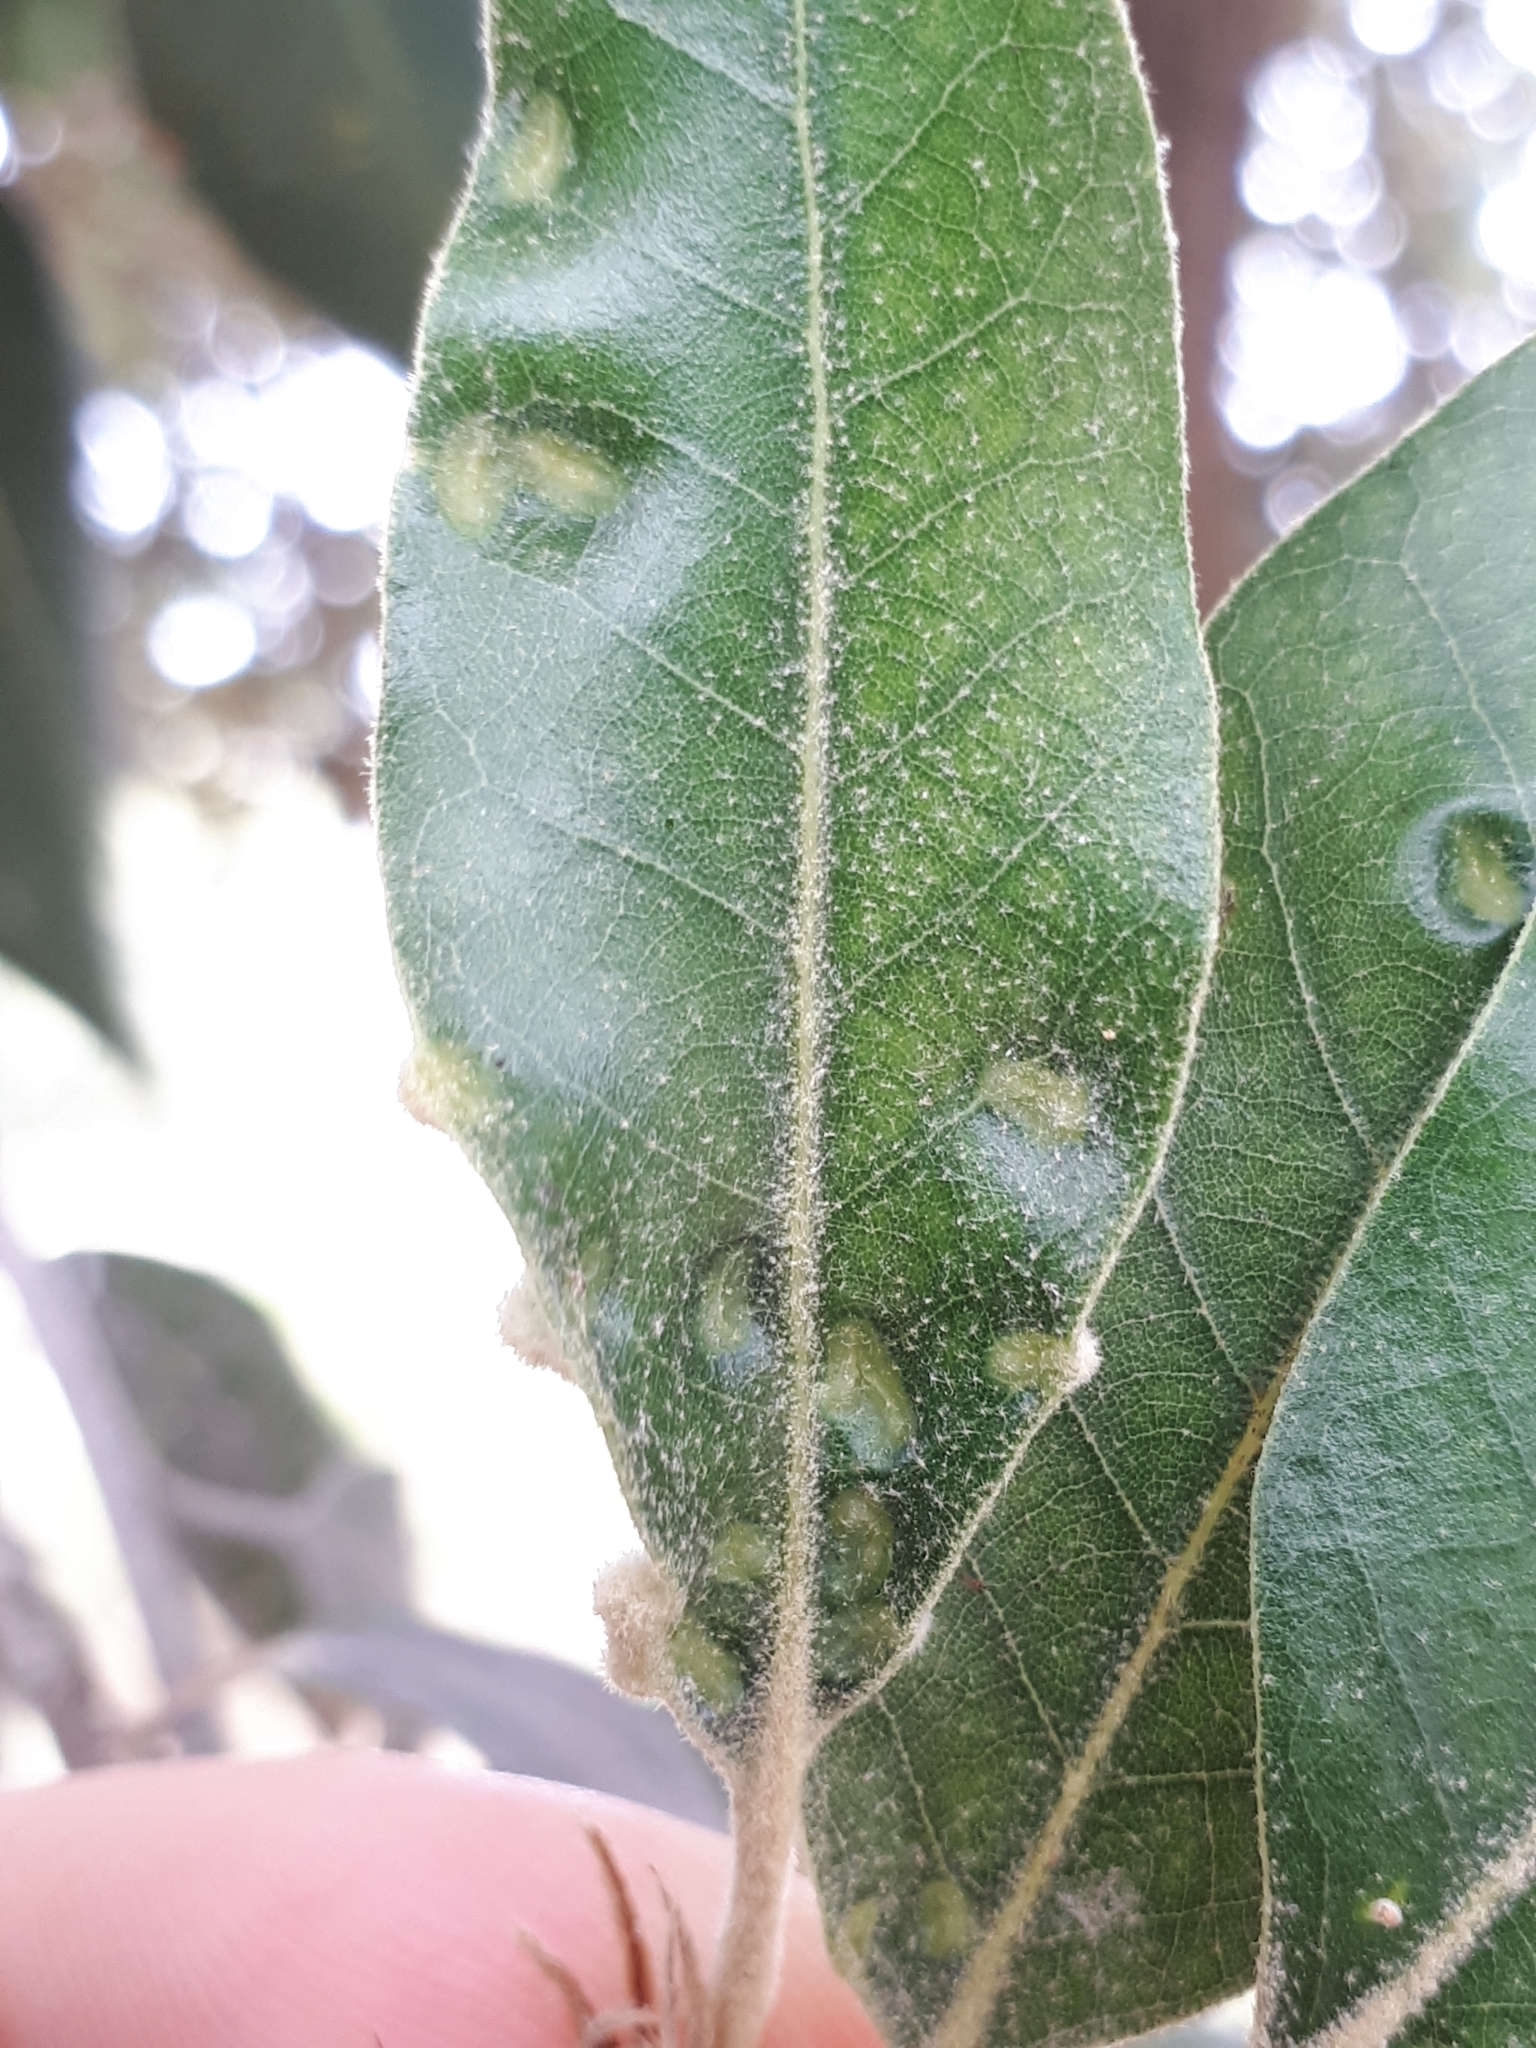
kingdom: Animalia
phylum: Arthropoda
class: Insecta
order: Diptera
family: Cecidomyiidae
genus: Dryomyia
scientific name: Dryomyia lichtensteinii
